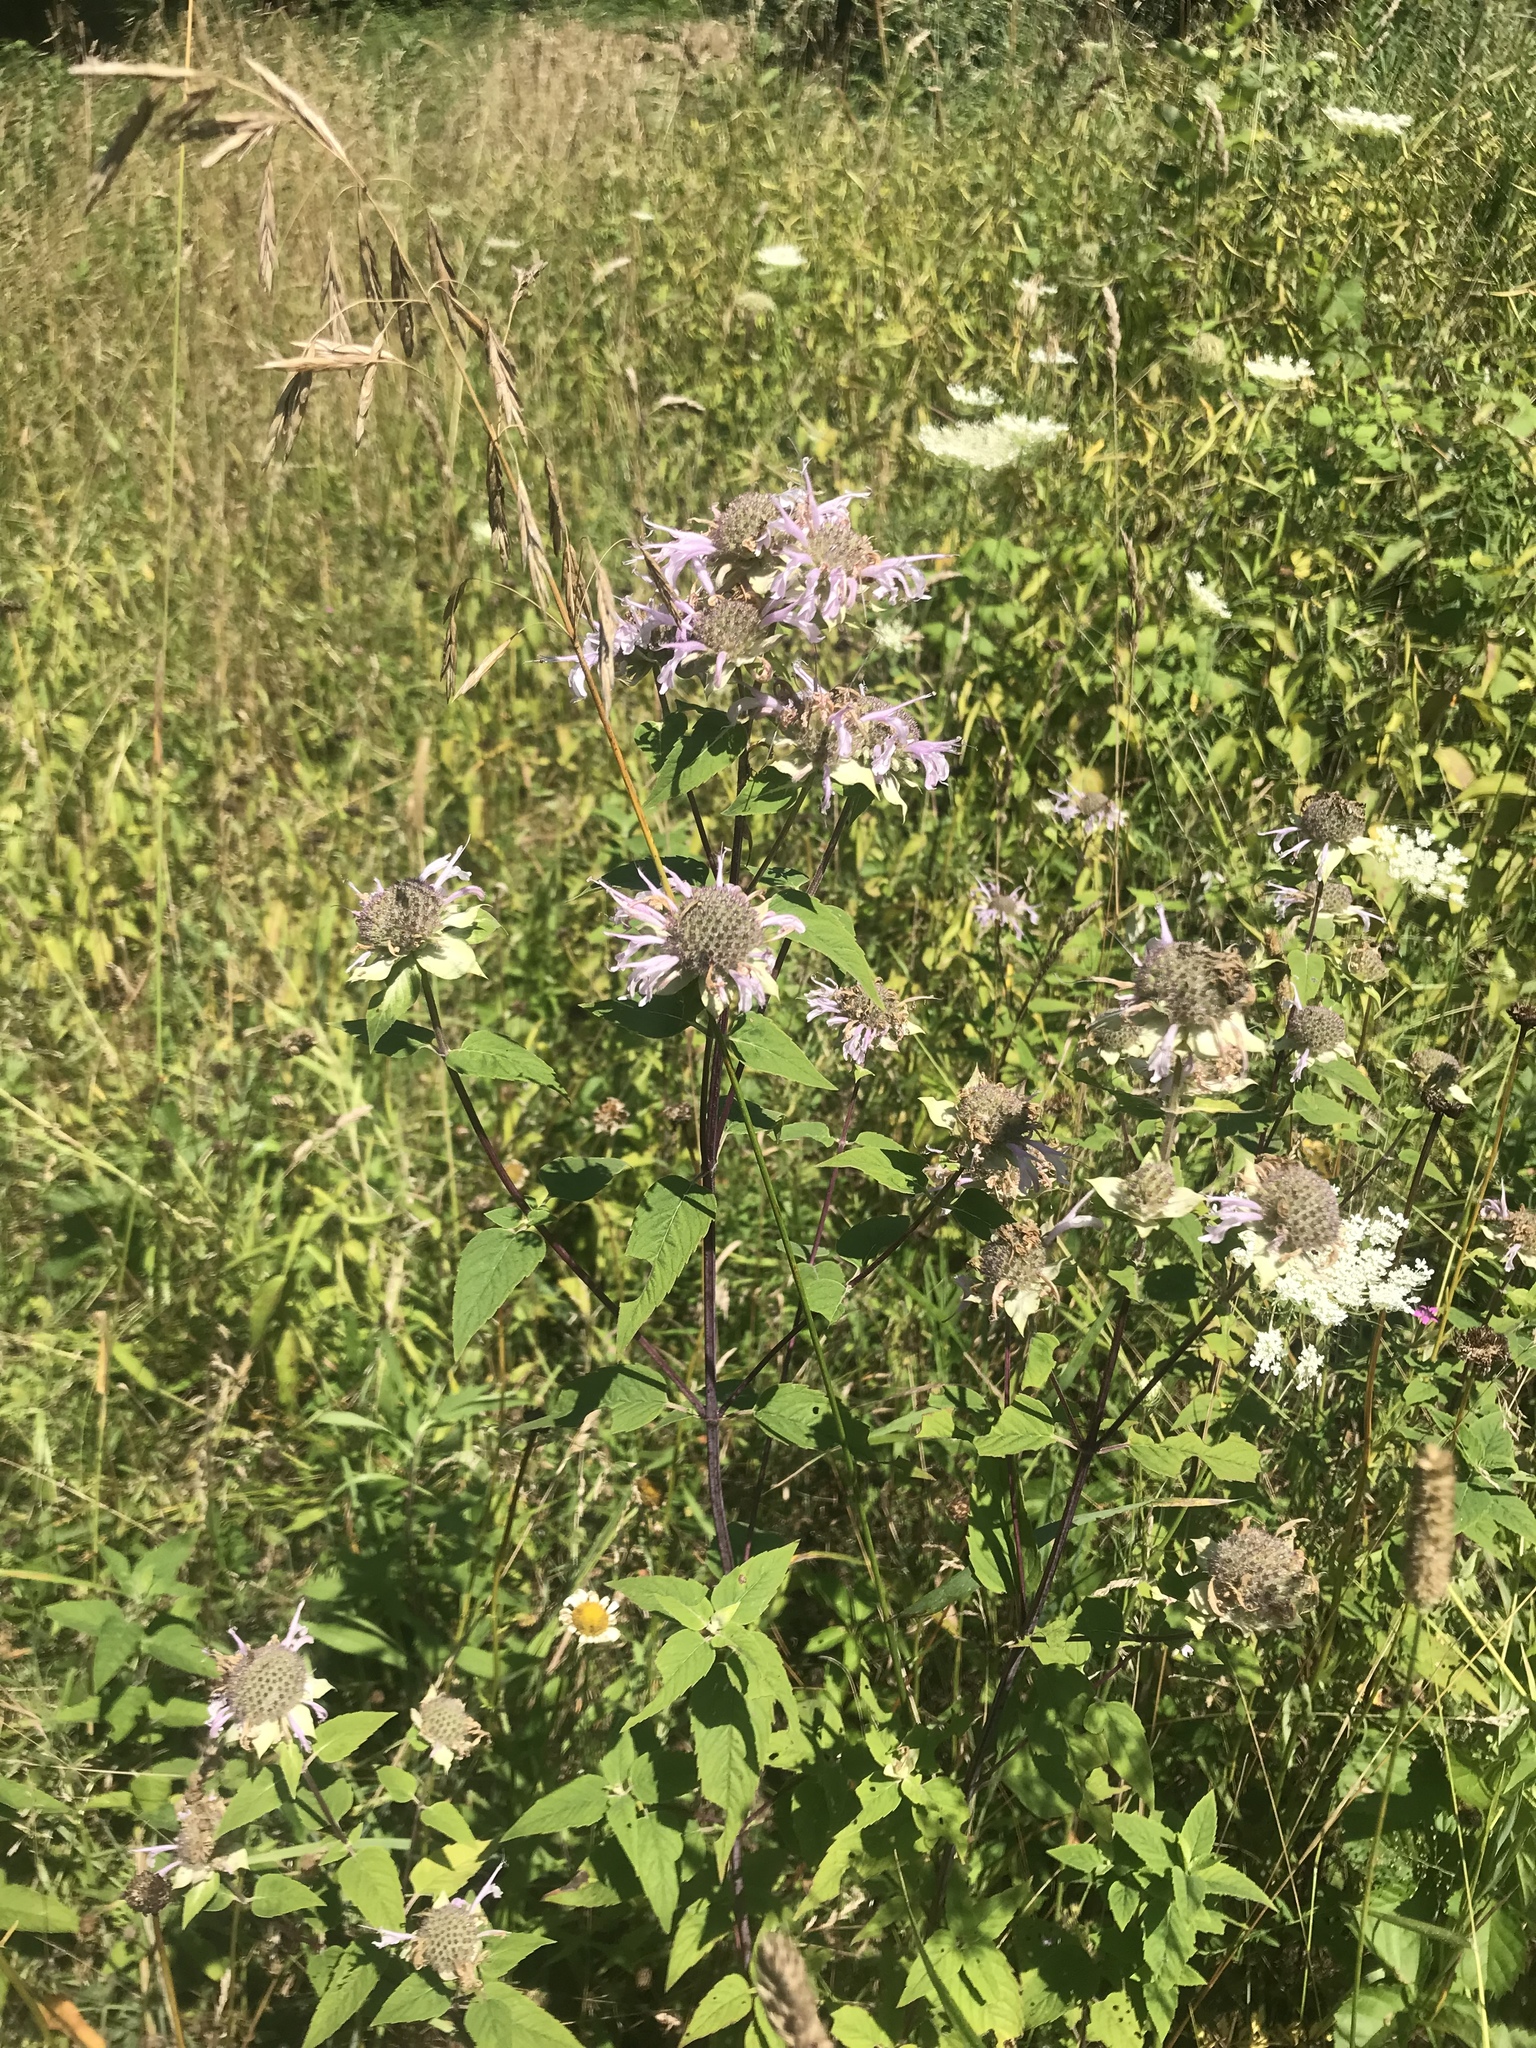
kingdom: Plantae
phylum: Tracheophyta
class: Magnoliopsida
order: Lamiales
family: Lamiaceae
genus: Monarda
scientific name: Monarda fistulosa
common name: Purple beebalm
